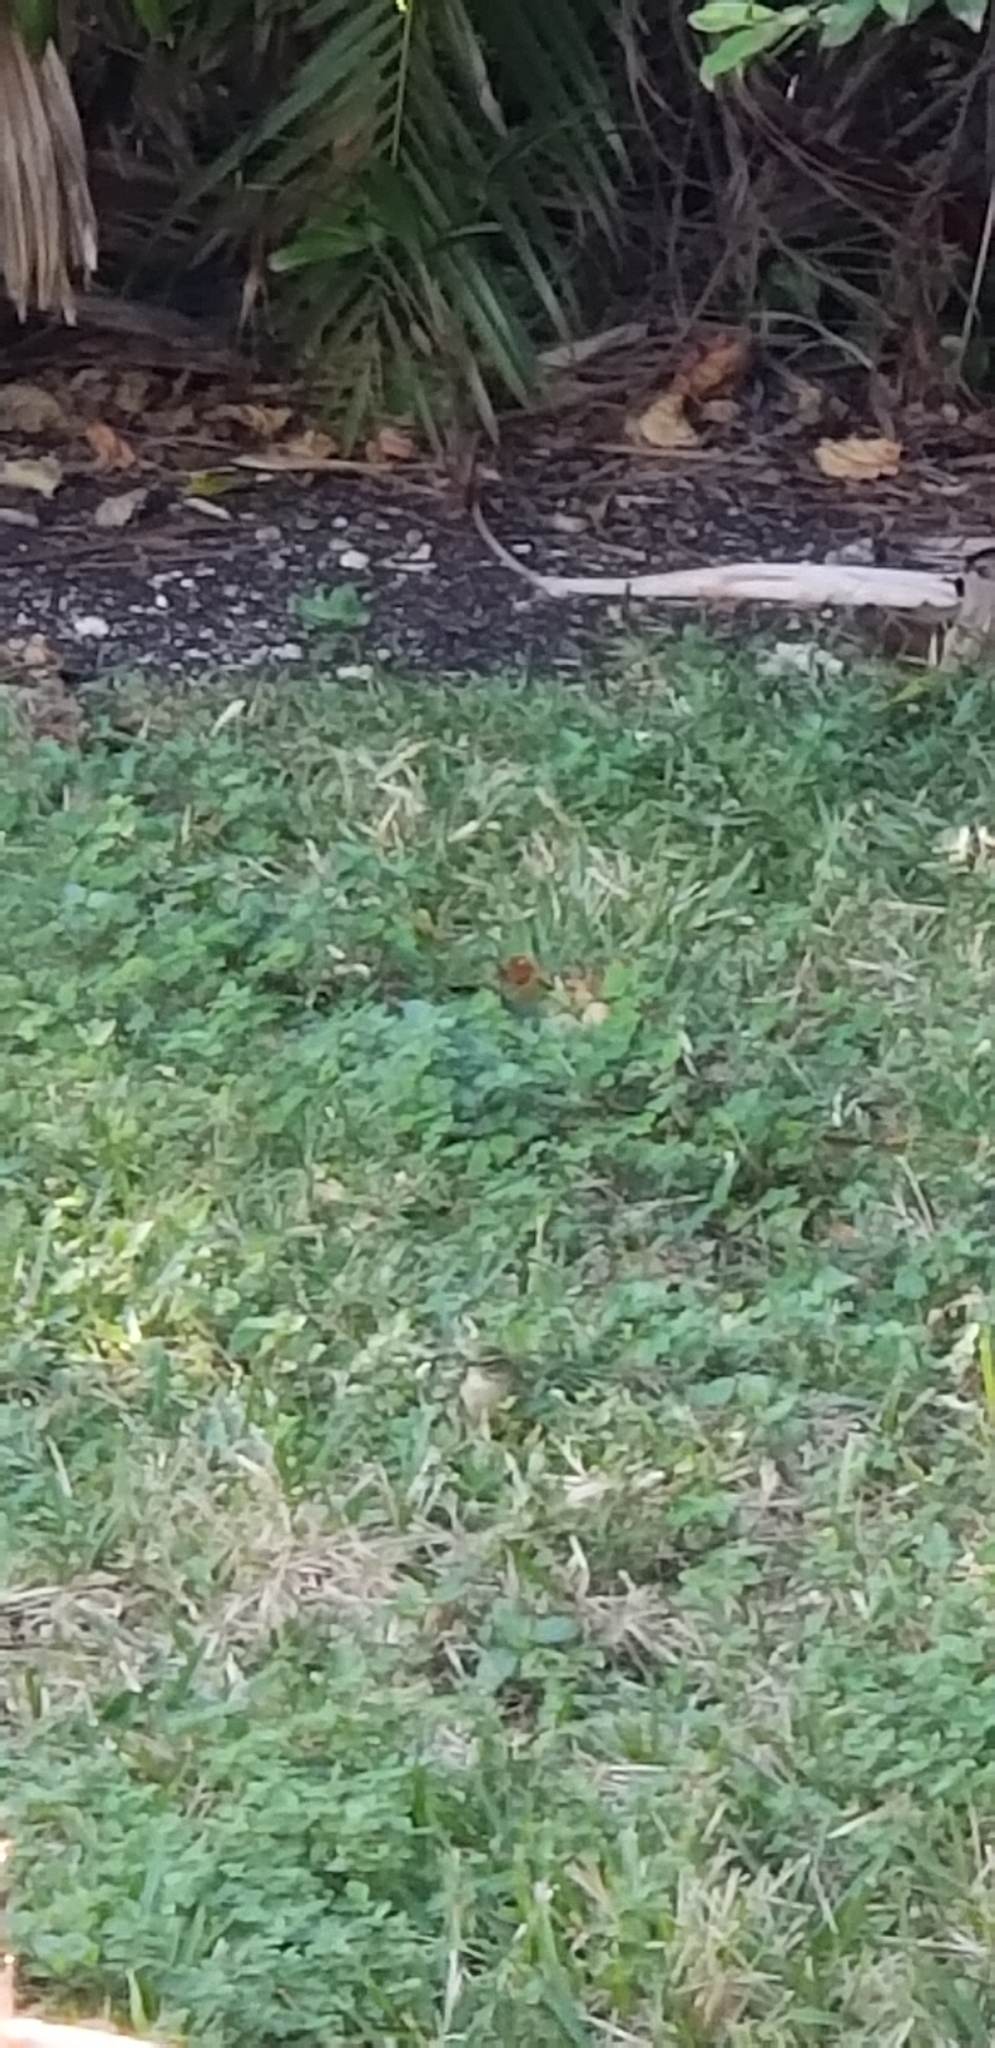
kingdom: Animalia
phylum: Chordata
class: Aves
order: Passeriformes
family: Parulidae
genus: Setophaga
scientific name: Setophaga palmarum
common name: Palm warbler
